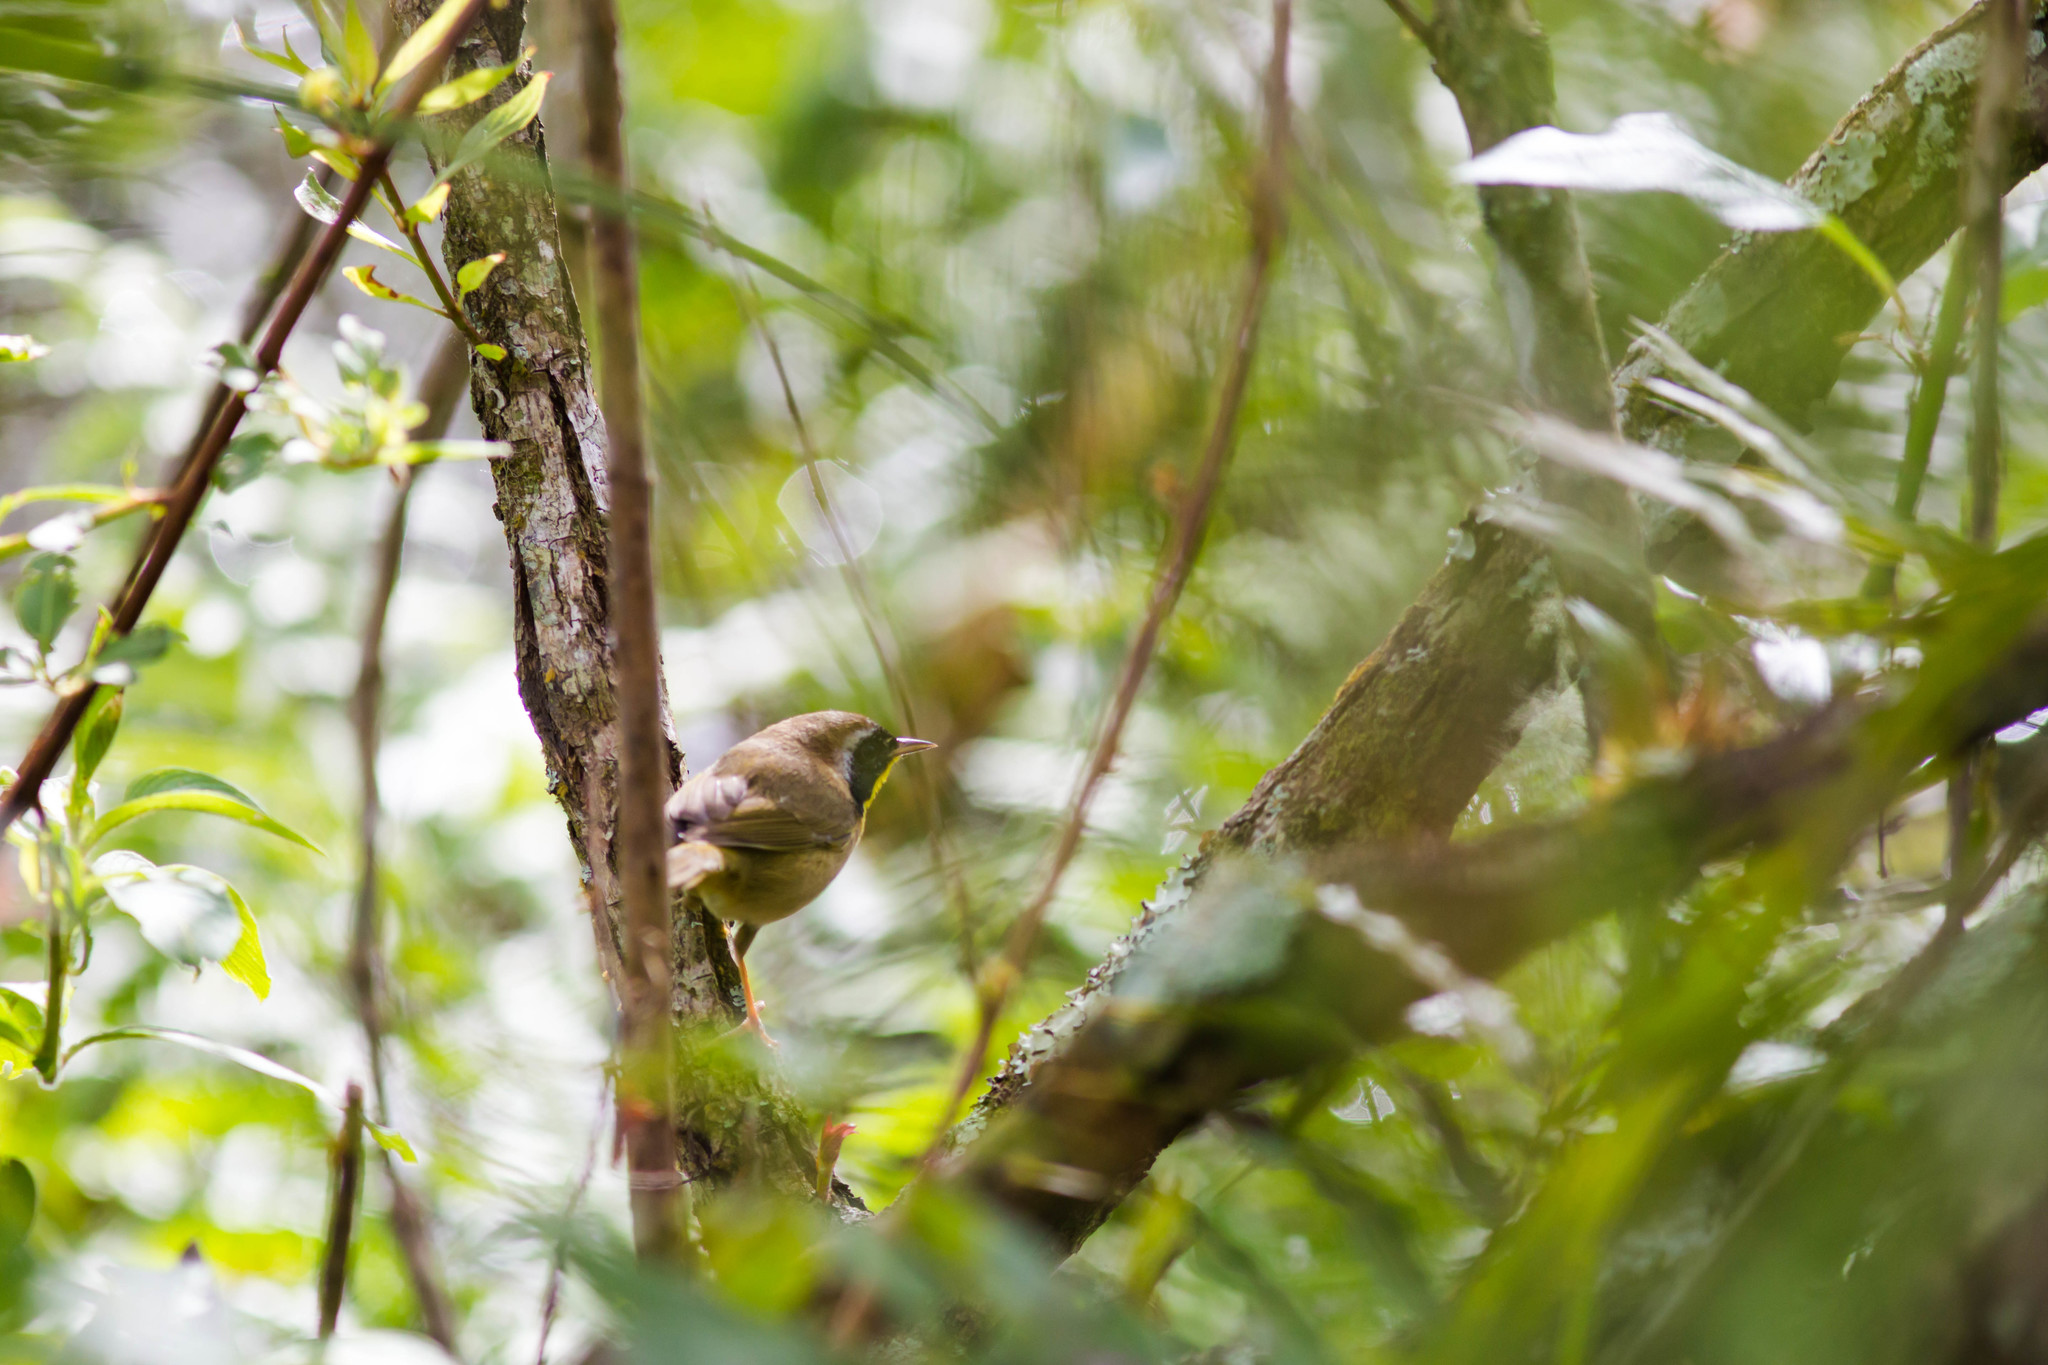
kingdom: Animalia
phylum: Chordata
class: Aves
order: Passeriformes
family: Parulidae
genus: Geothlypis
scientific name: Geothlypis trichas
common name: Common yellowthroat
